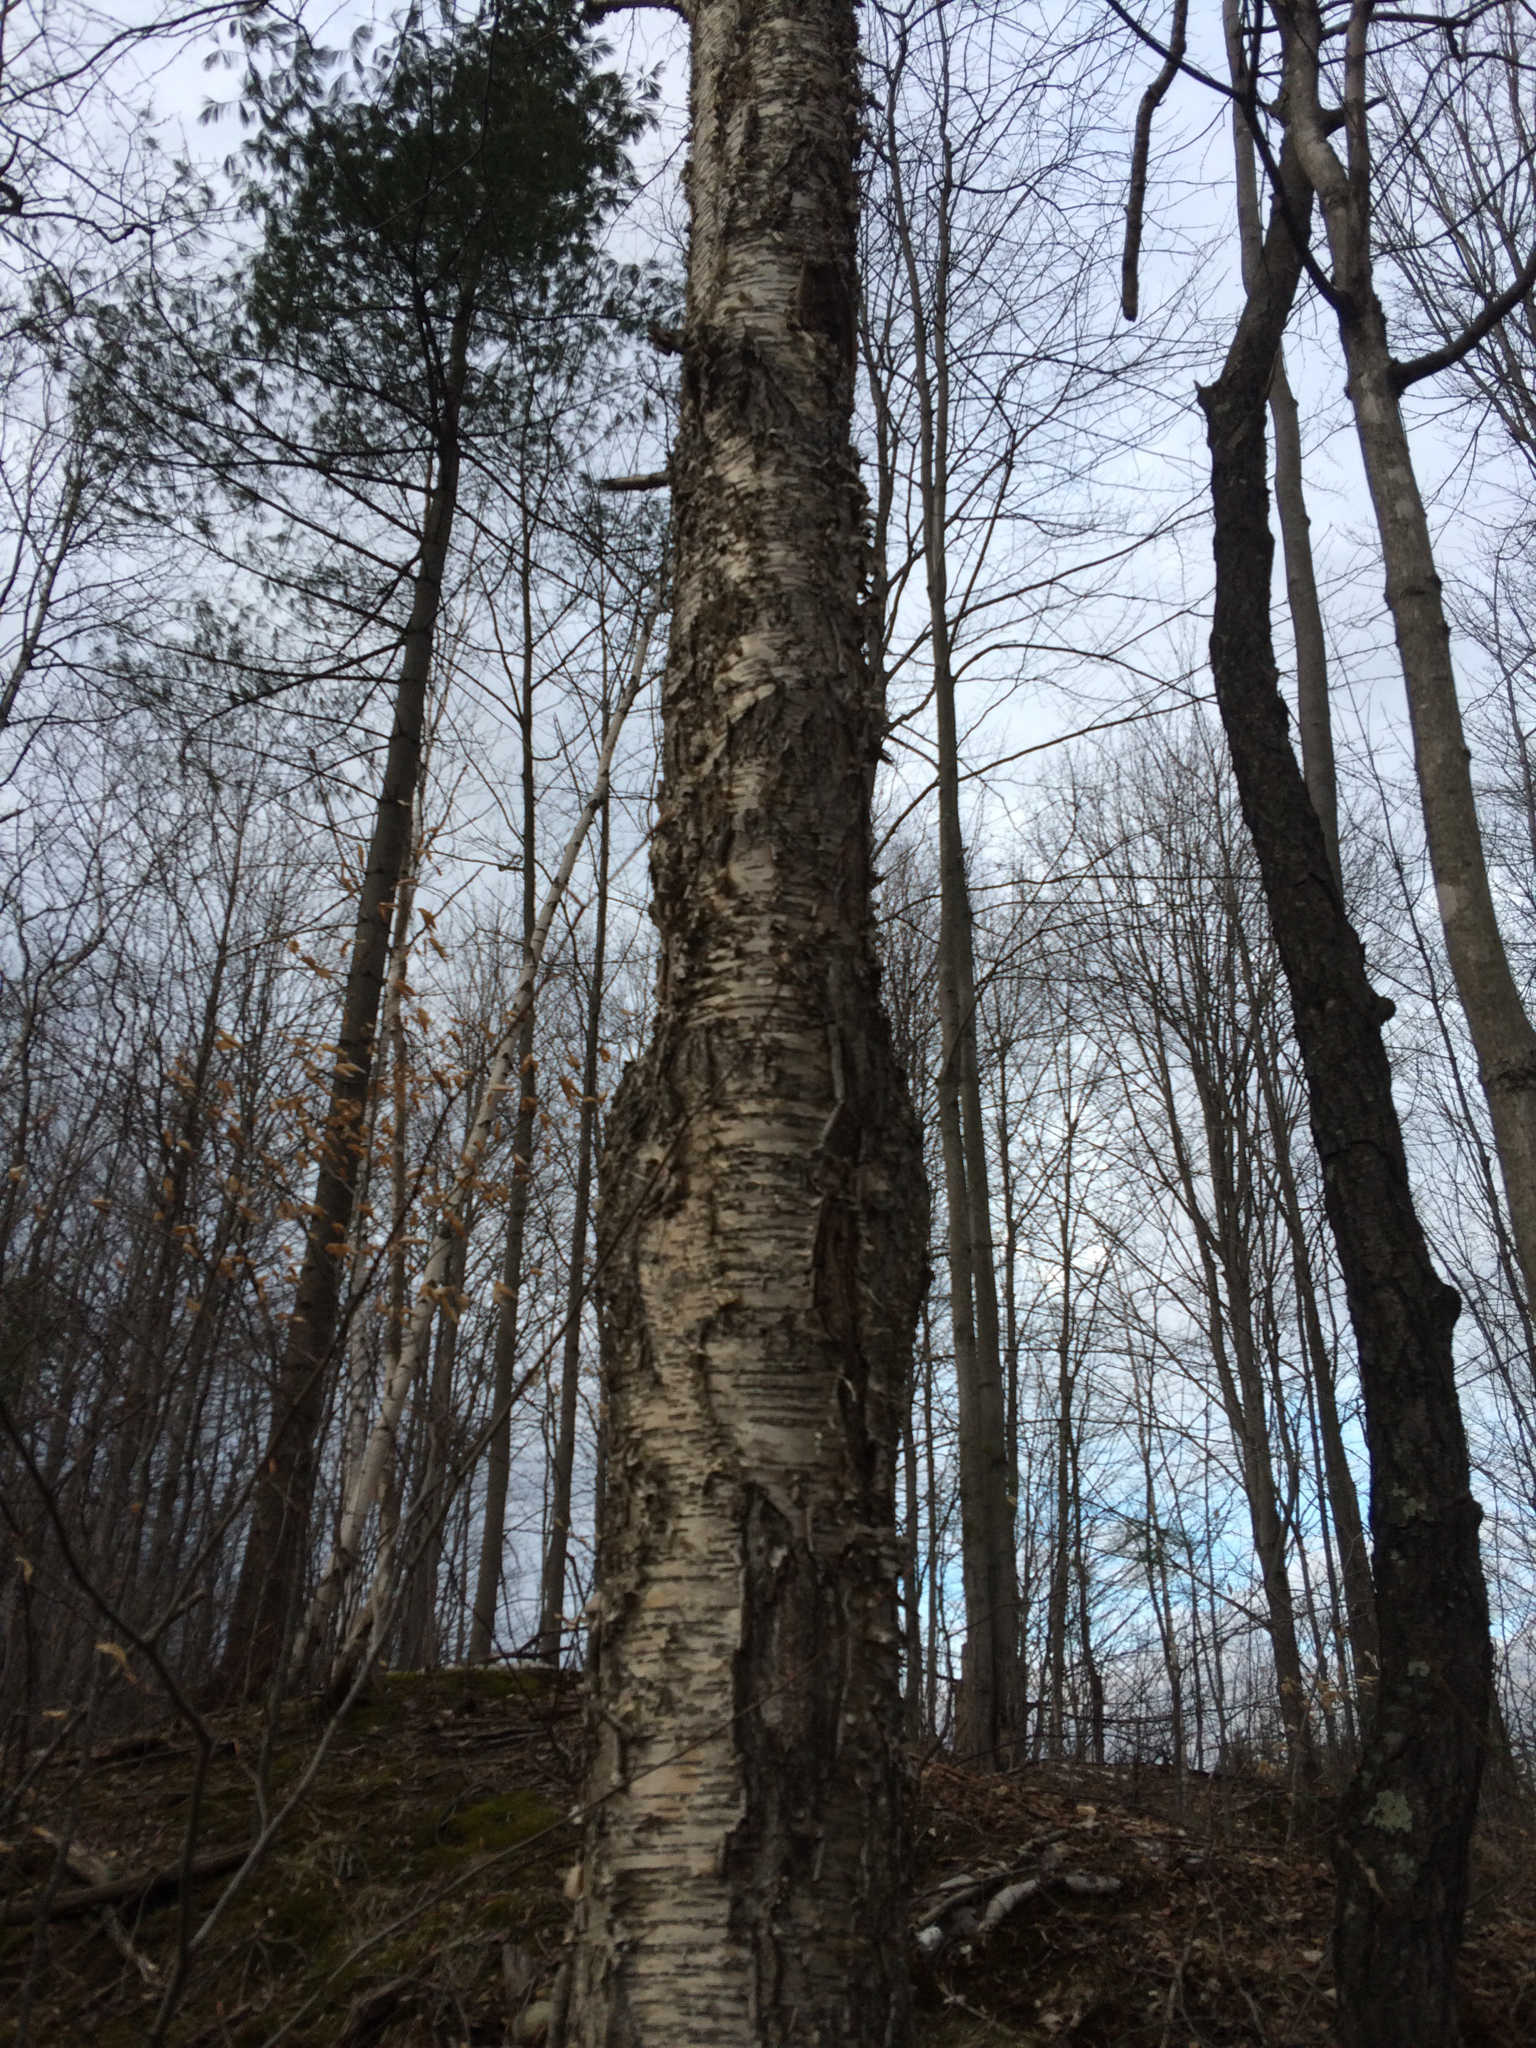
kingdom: Plantae
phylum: Tracheophyta
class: Magnoliopsida
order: Fagales
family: Betulaceae
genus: Betula
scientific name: Betula alleghaniensis
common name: Yellow birch
